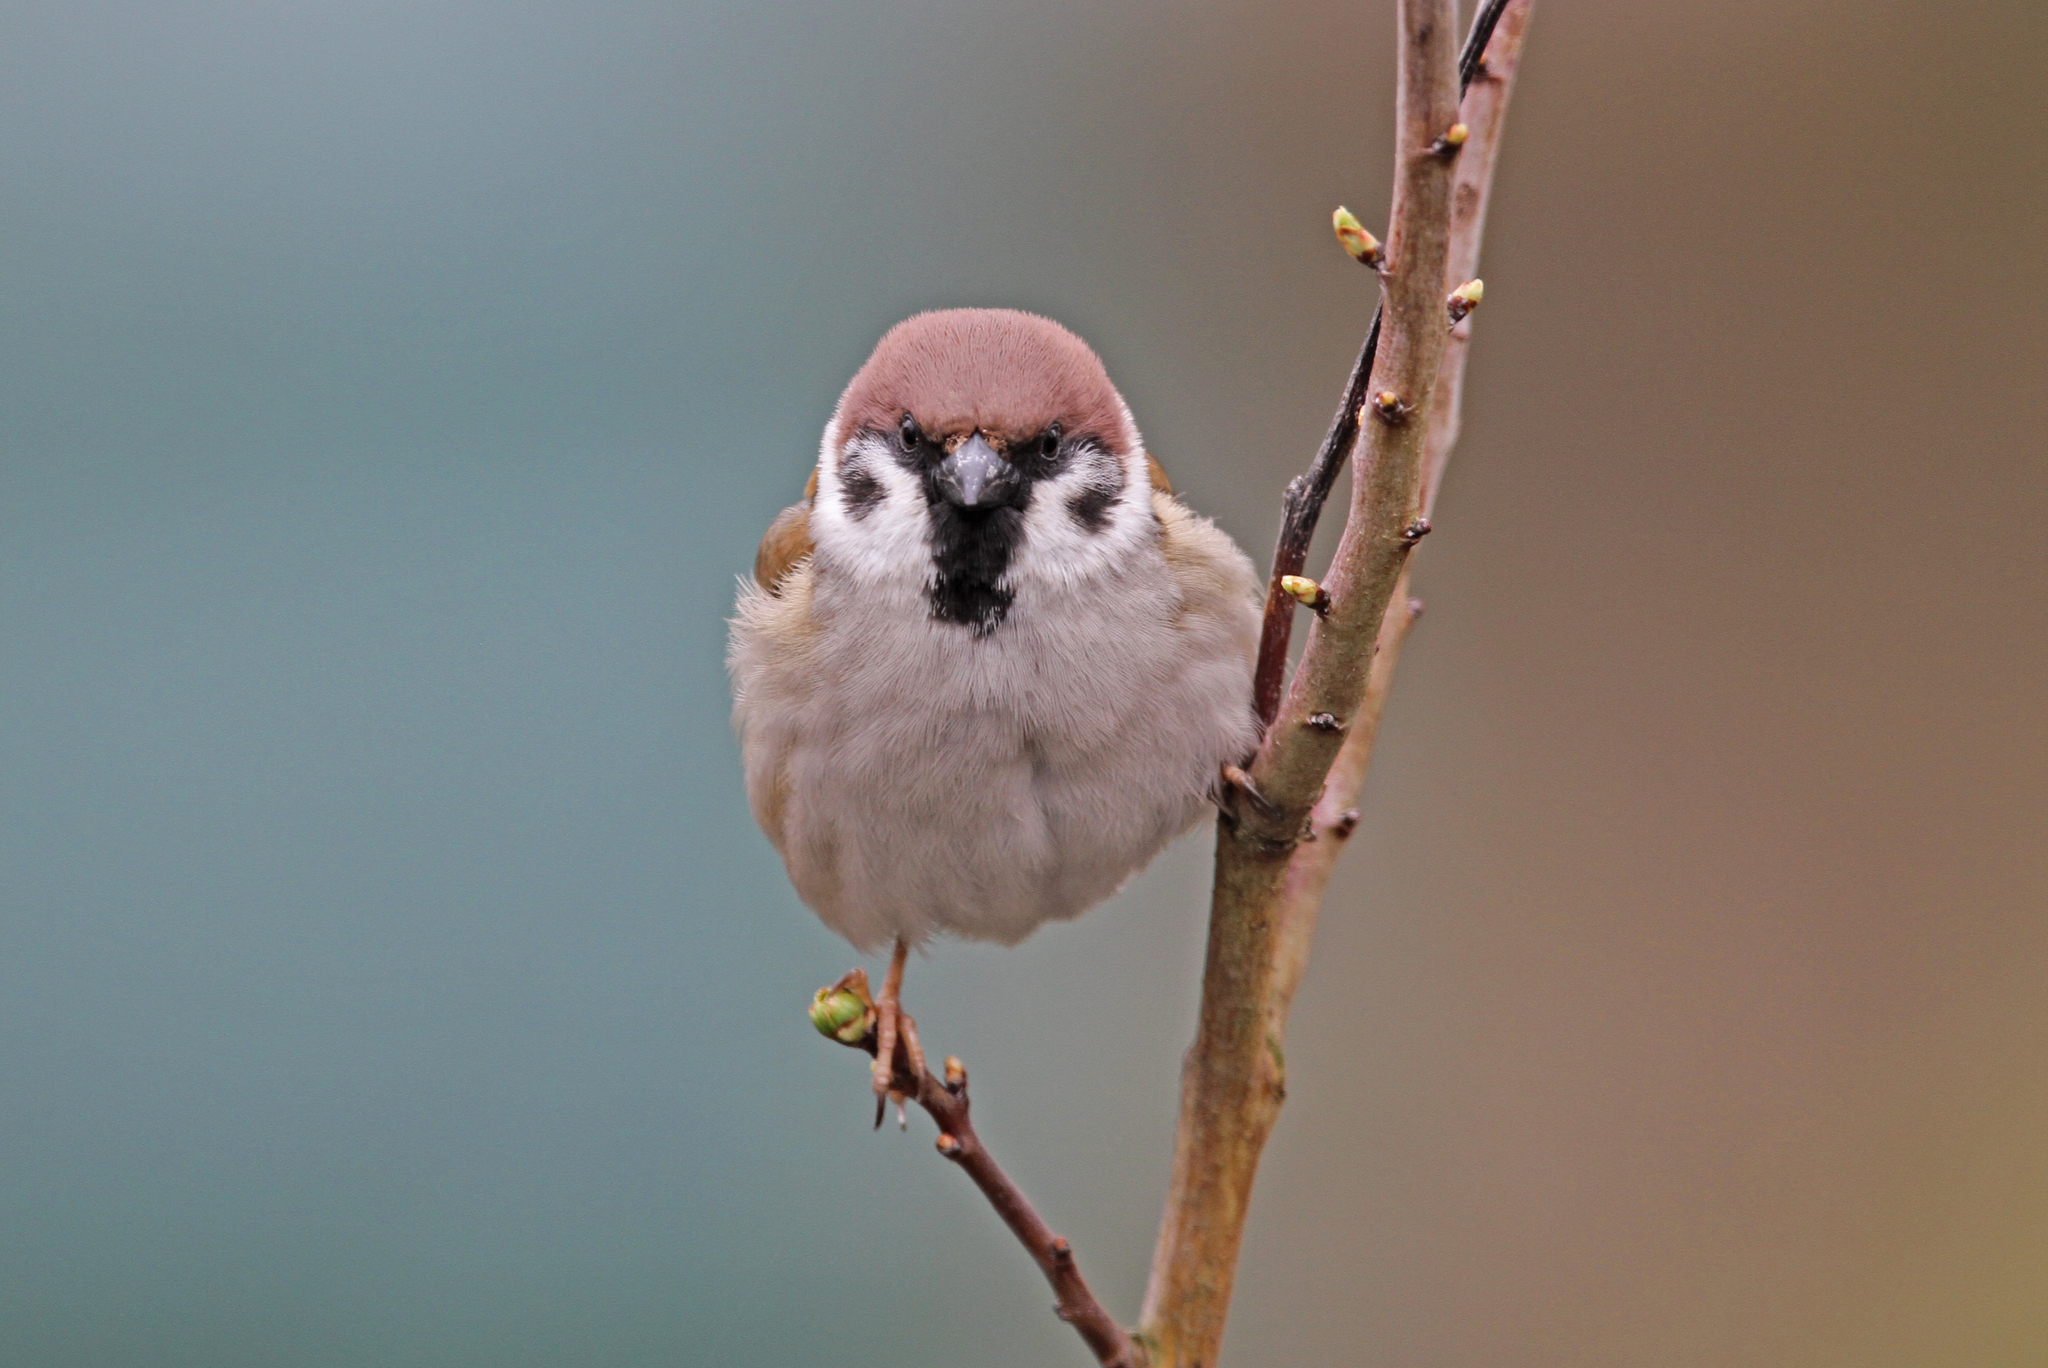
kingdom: Animalia
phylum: Chordata
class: Aves
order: Passeriformes
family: Passeridae
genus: Passer
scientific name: Passer montanus
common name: Eurasian tree sparrow
